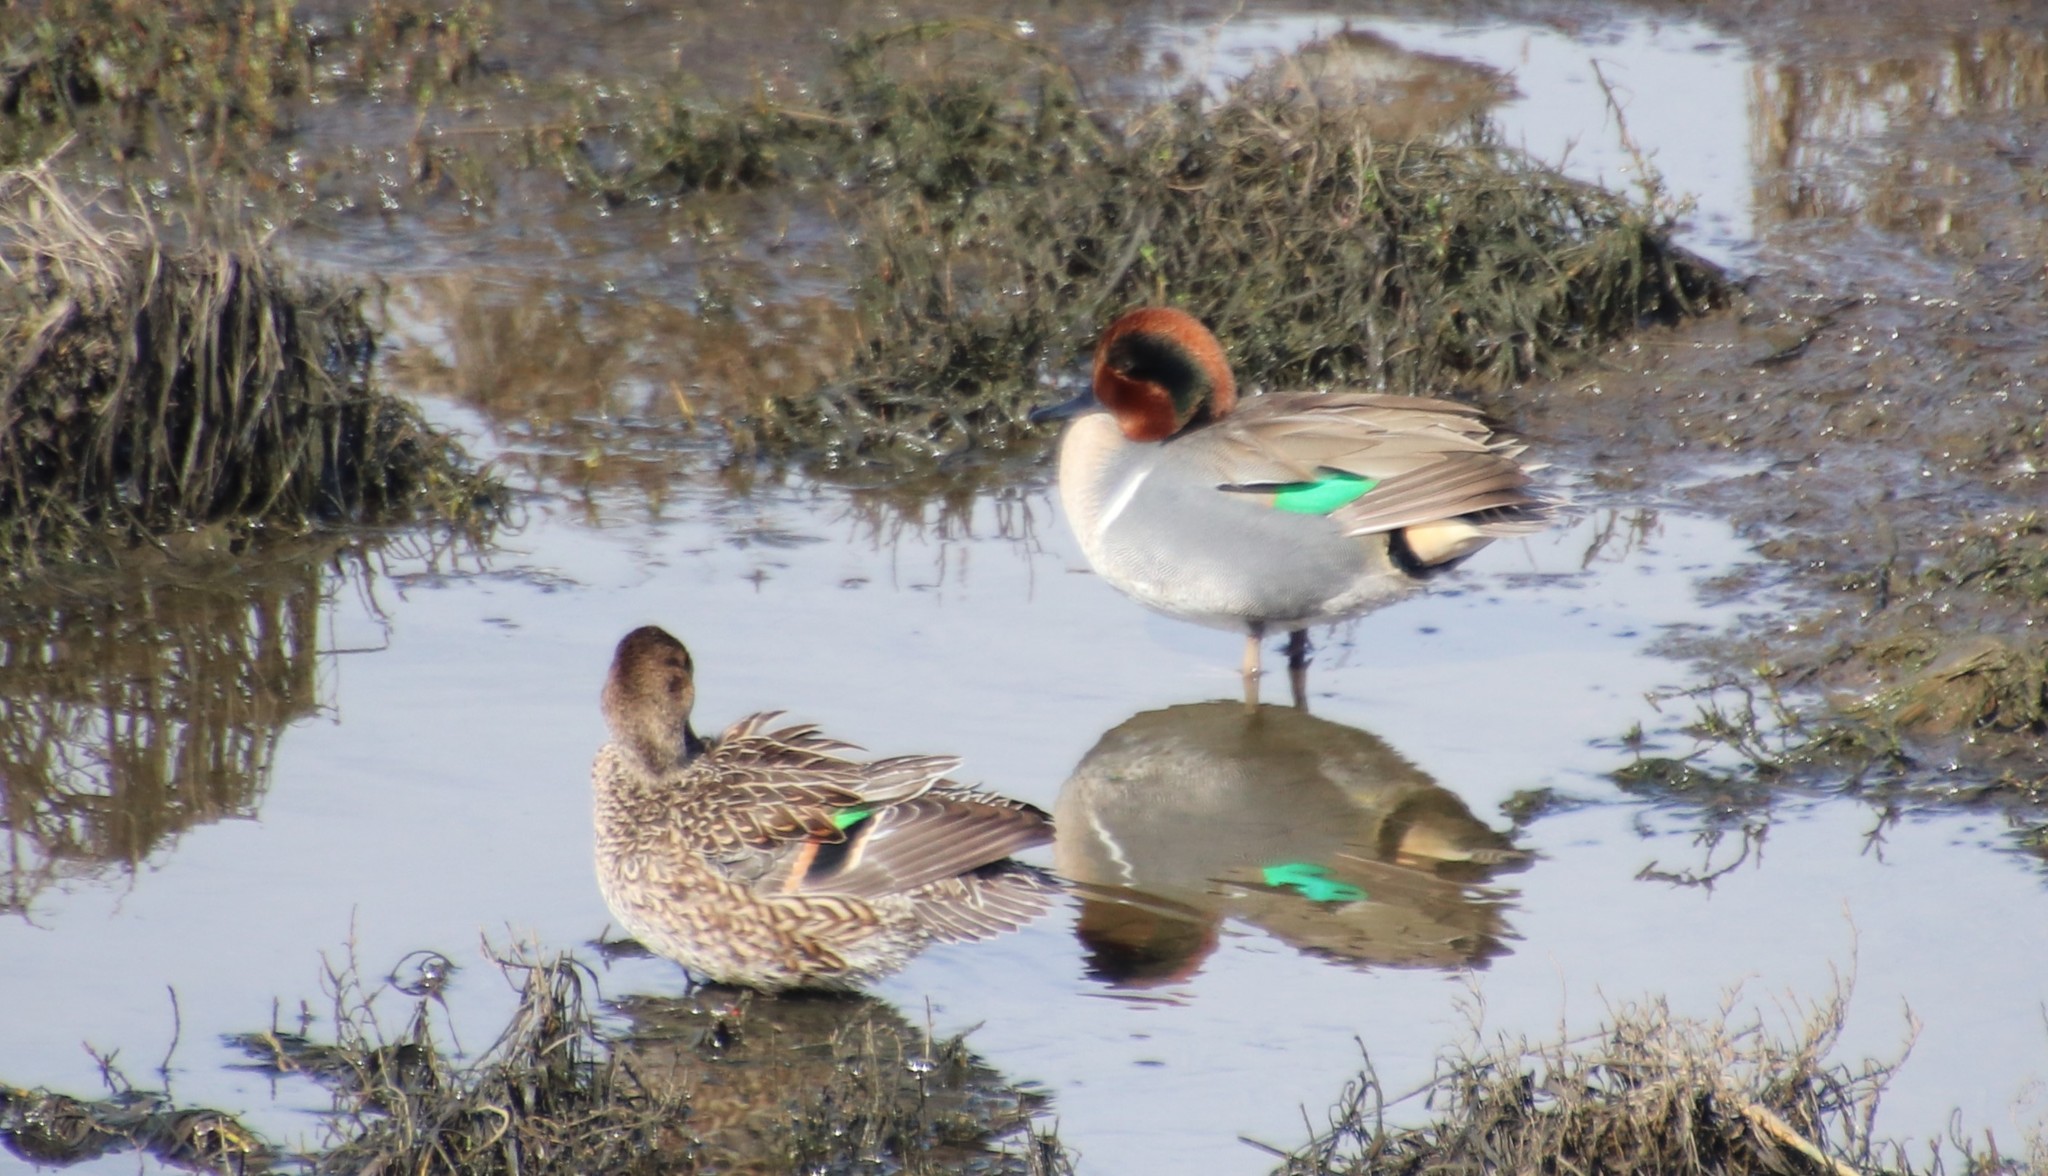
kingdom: Animalia
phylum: Chordata
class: Aves
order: Anseriformes
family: Anatidae
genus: Anas
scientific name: Anas crecca
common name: Eurasian teal
